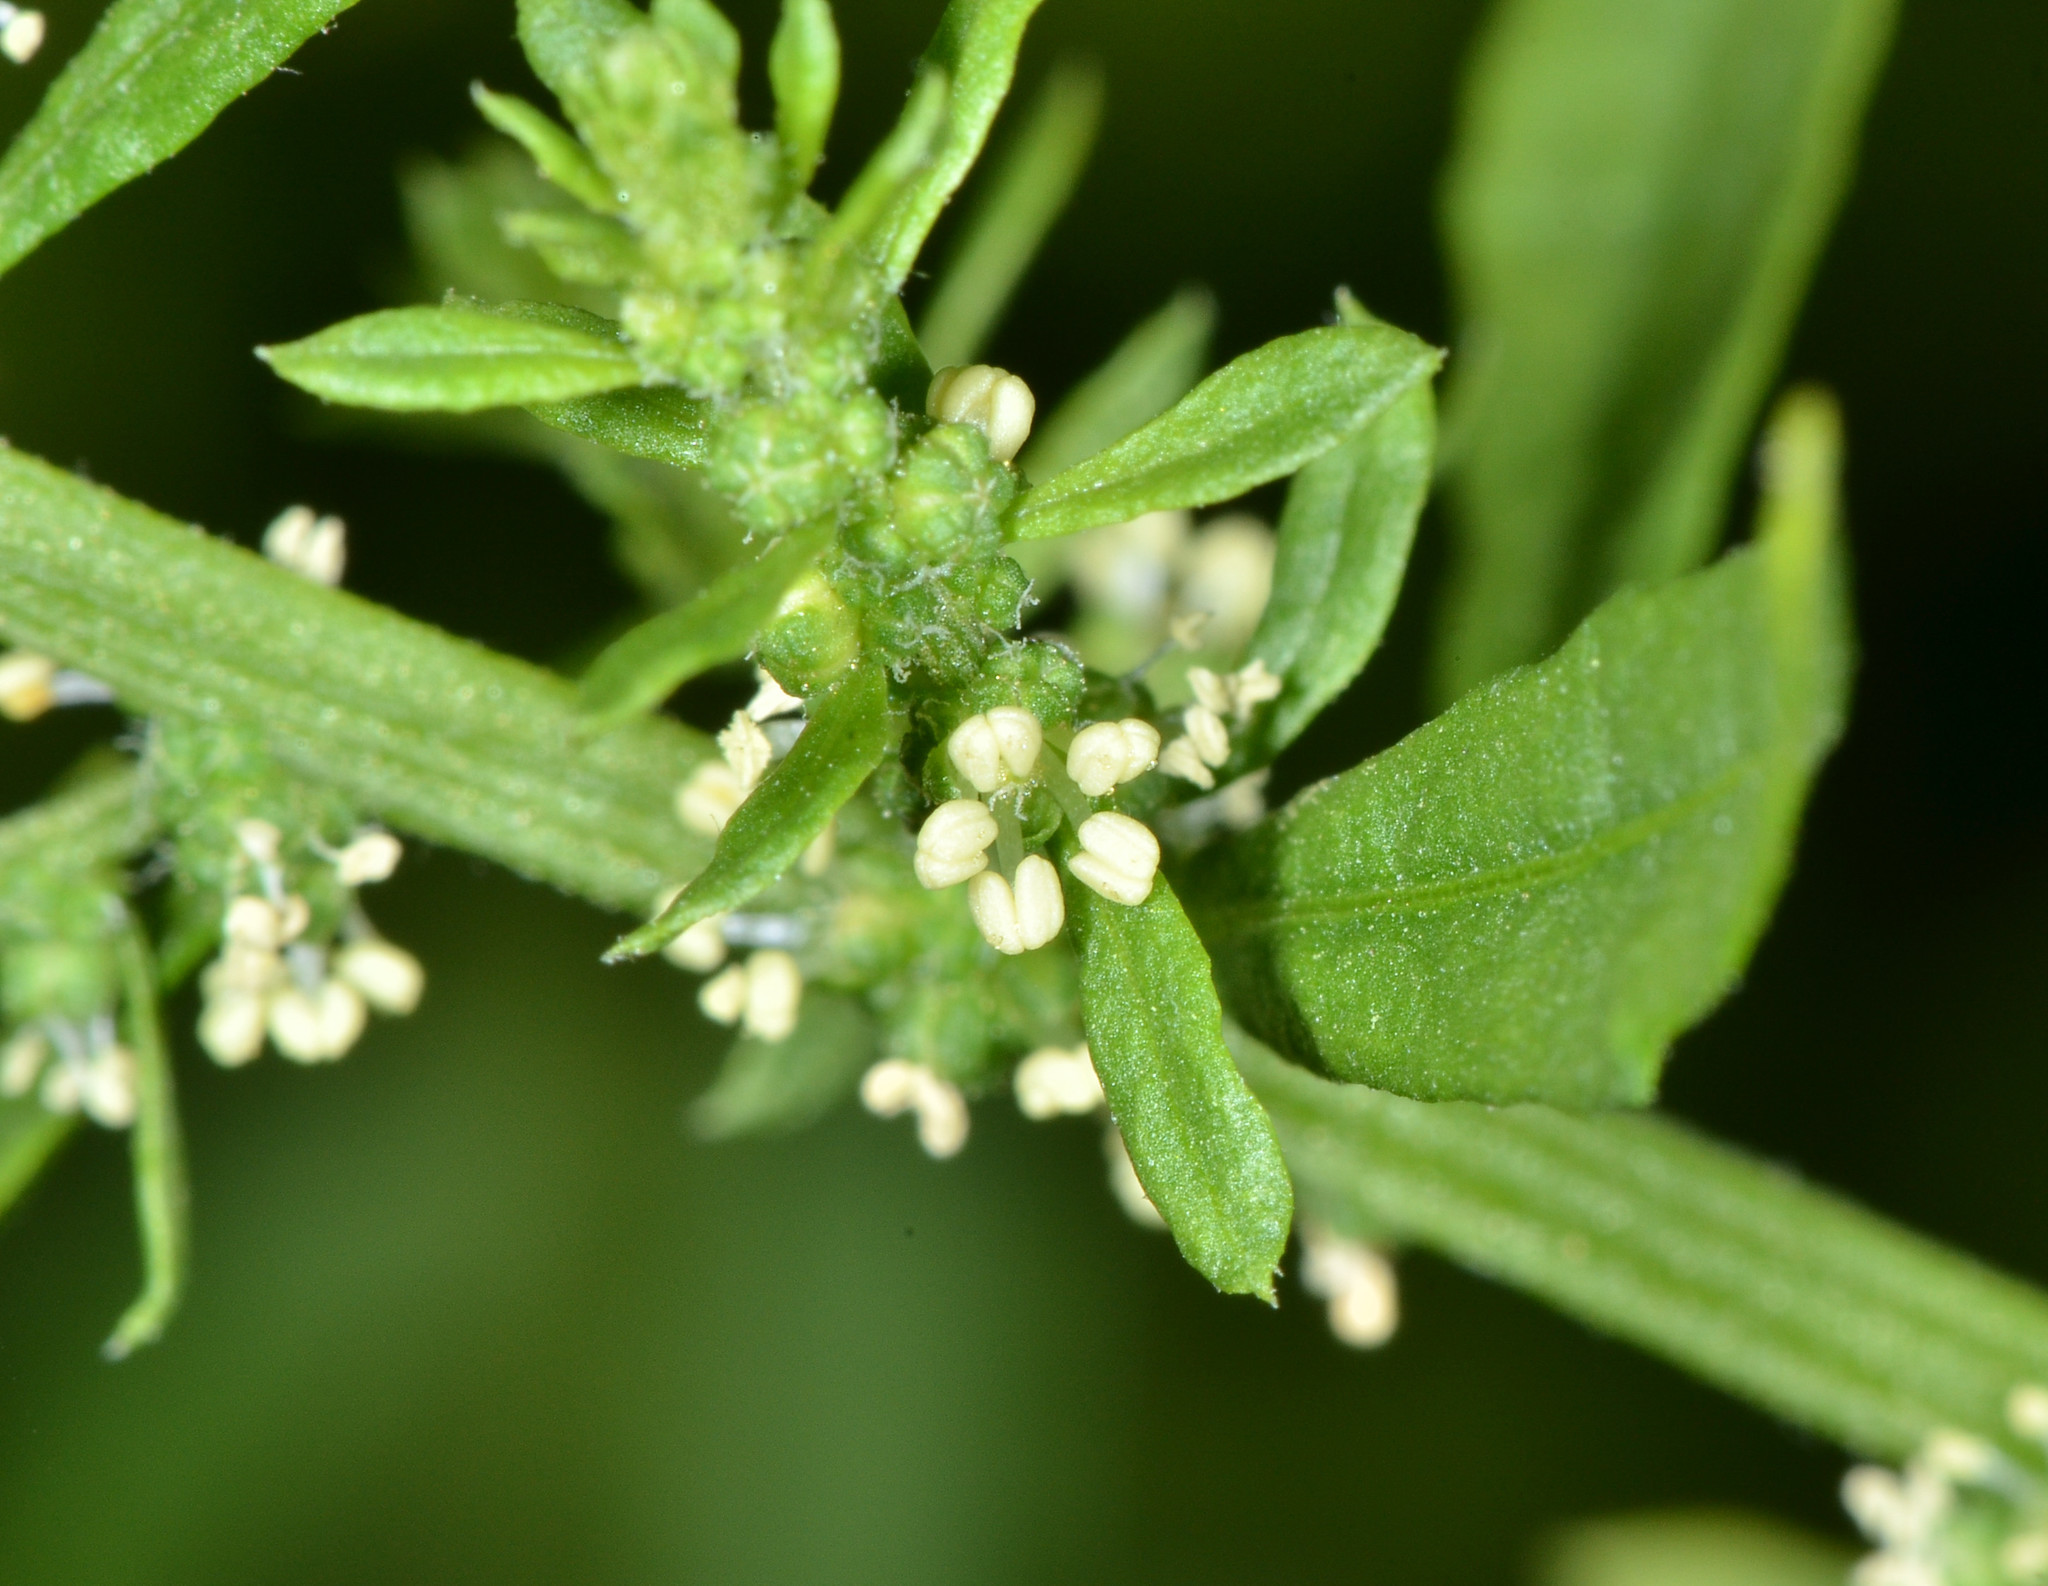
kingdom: Plantae
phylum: Tracheophyta
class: Magnoliopsida
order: Caryophyllales
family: Amaranthaceae
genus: Dysphania
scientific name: Dysphania ambrosioides
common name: Wormseed
